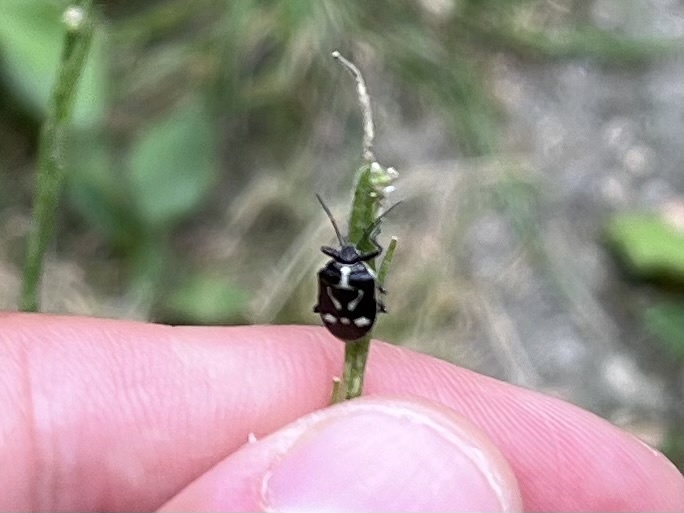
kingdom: Animalia
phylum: Arthropoda
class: Insecta
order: Hemiptera
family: Pentatomidae
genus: Eurydema
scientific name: Eurydema oleracea
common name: Cabbage bug
